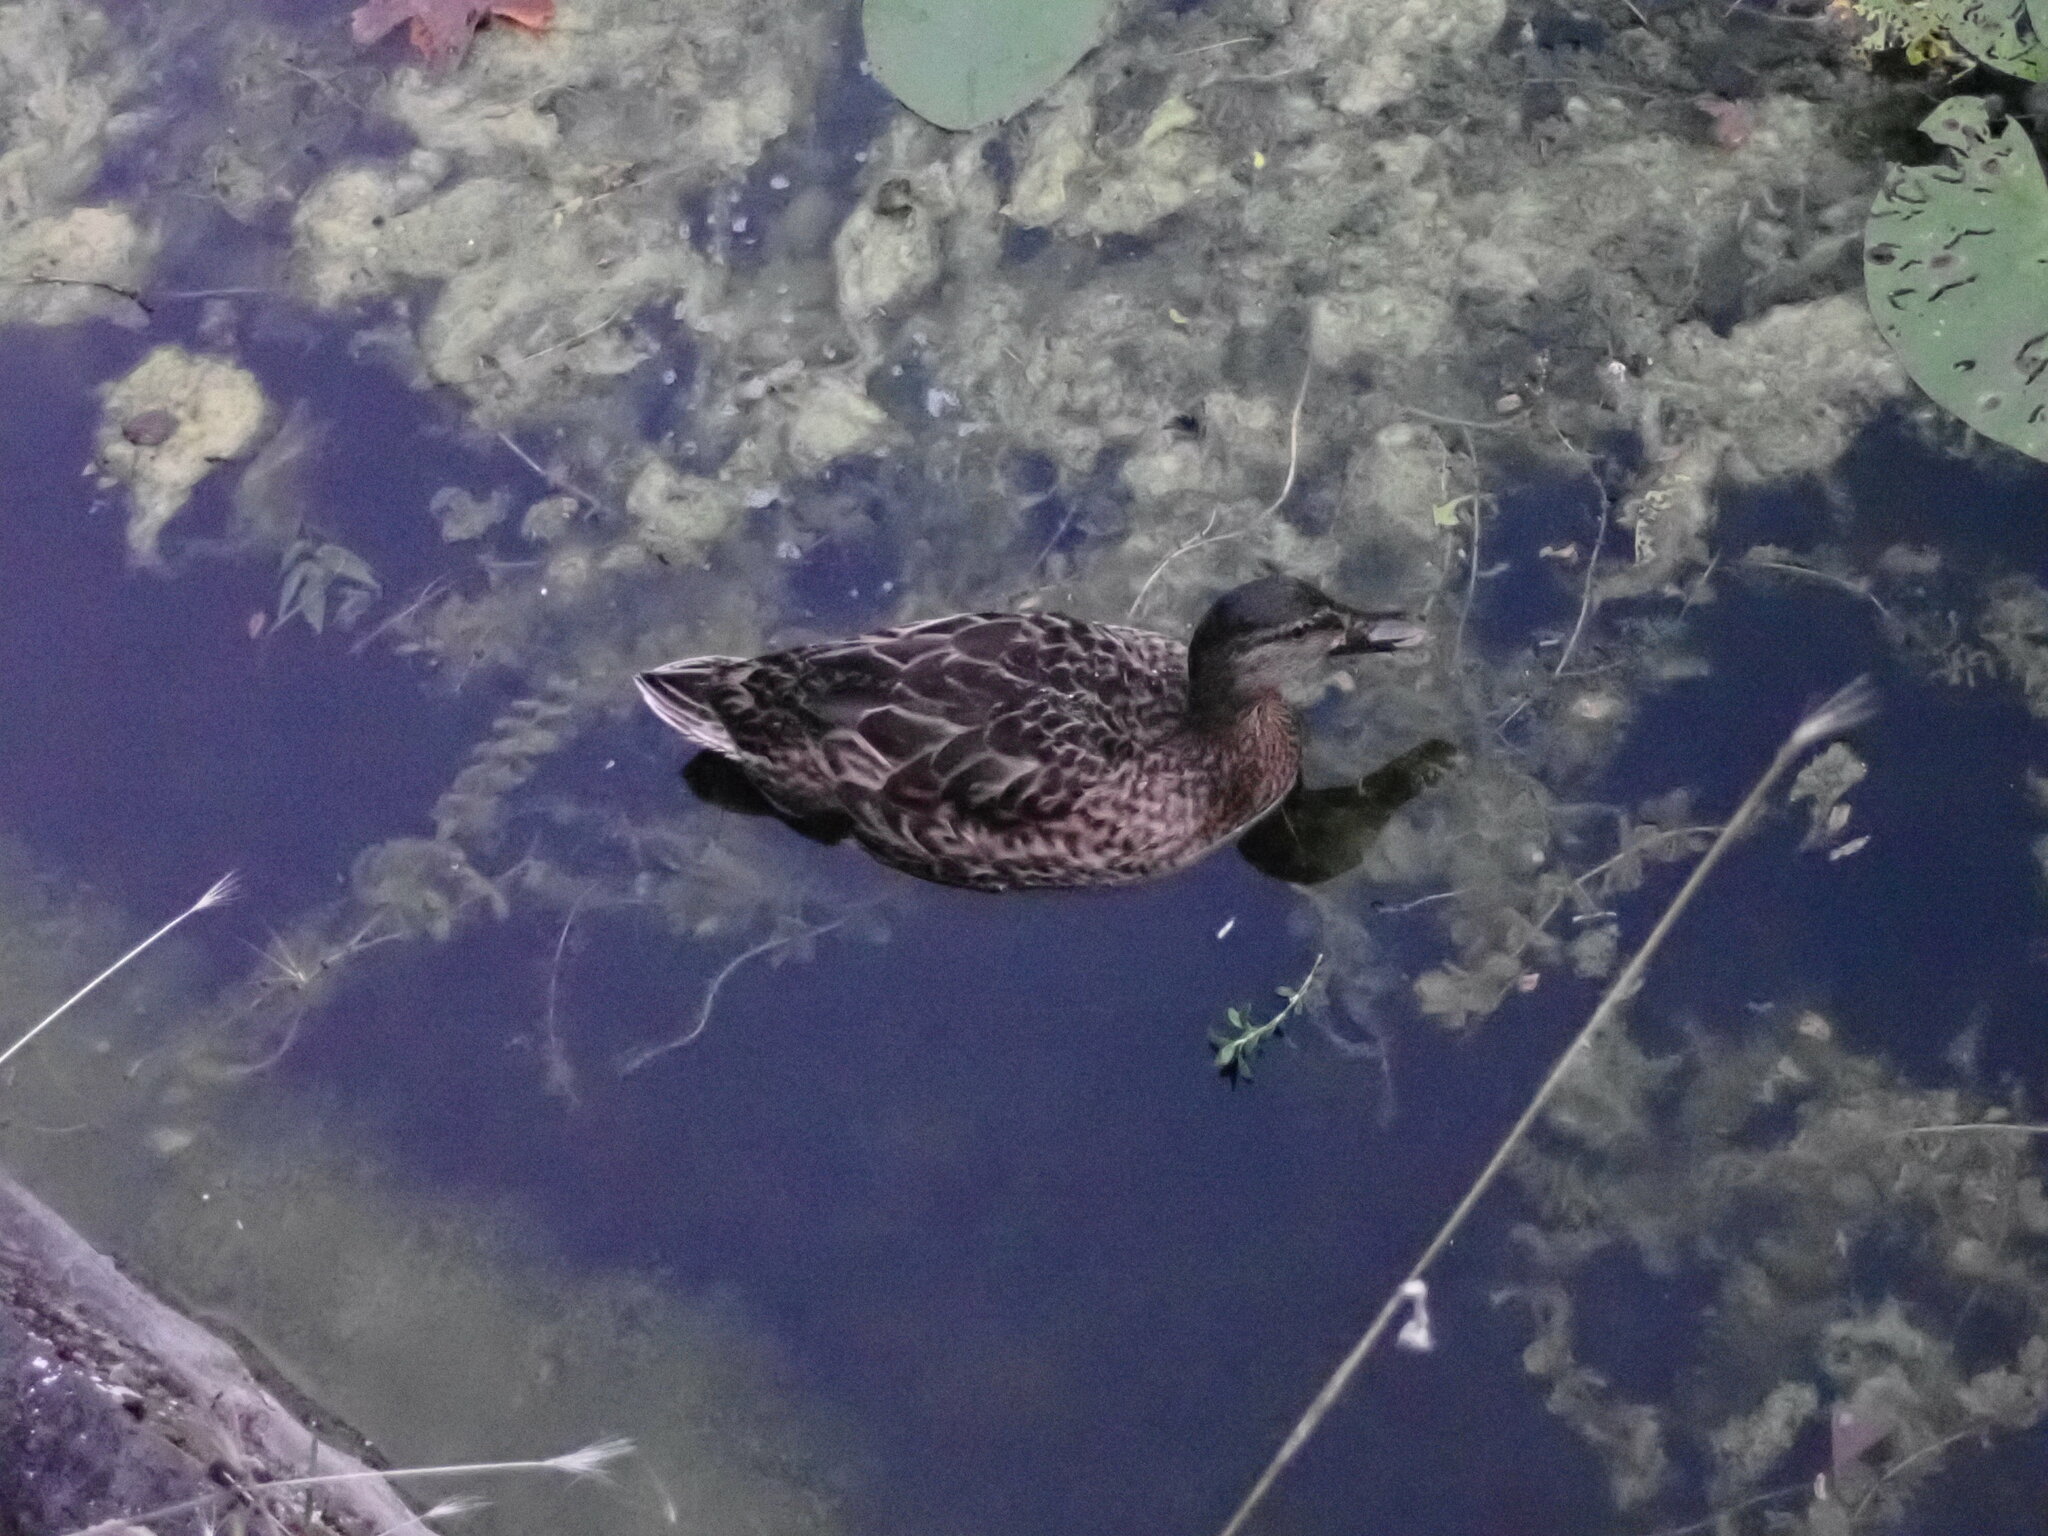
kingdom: Animalia
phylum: Chordata
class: Aves
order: Anseriformes
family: Anatidae
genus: Anas
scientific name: Anas platyrhynchos
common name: Mallard
